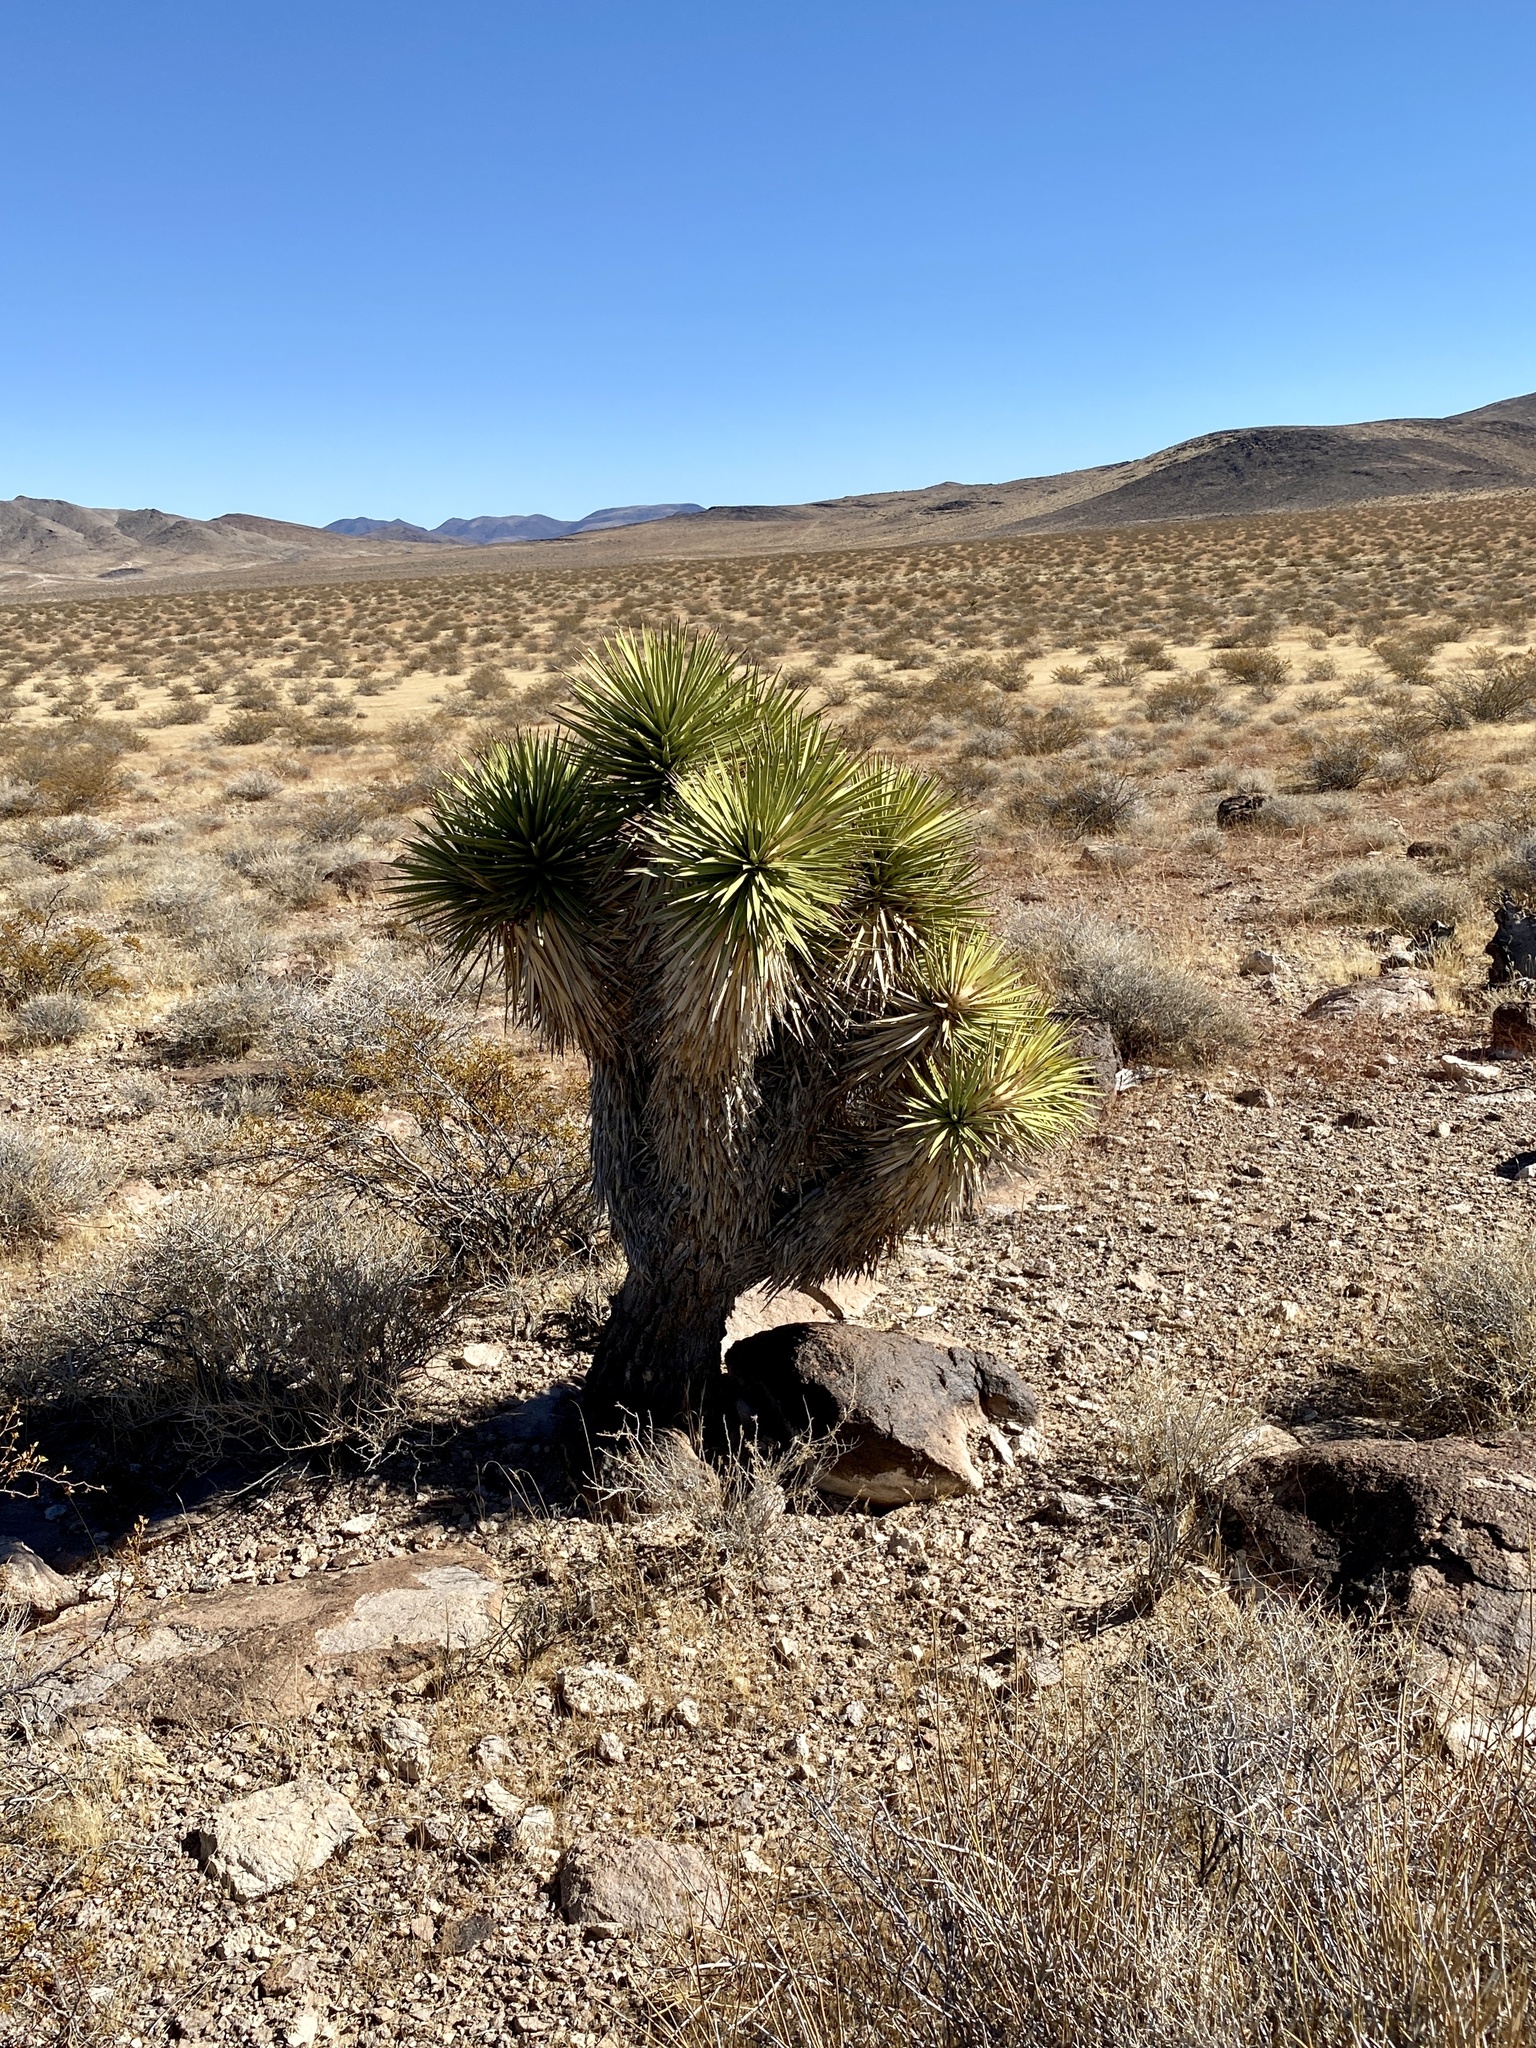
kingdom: Plantae
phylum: Tracheophyta
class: Liliopsida
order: Asparagales
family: Asparagaceae
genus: Yucca
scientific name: Yucca brevifolia
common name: Joshua tree
